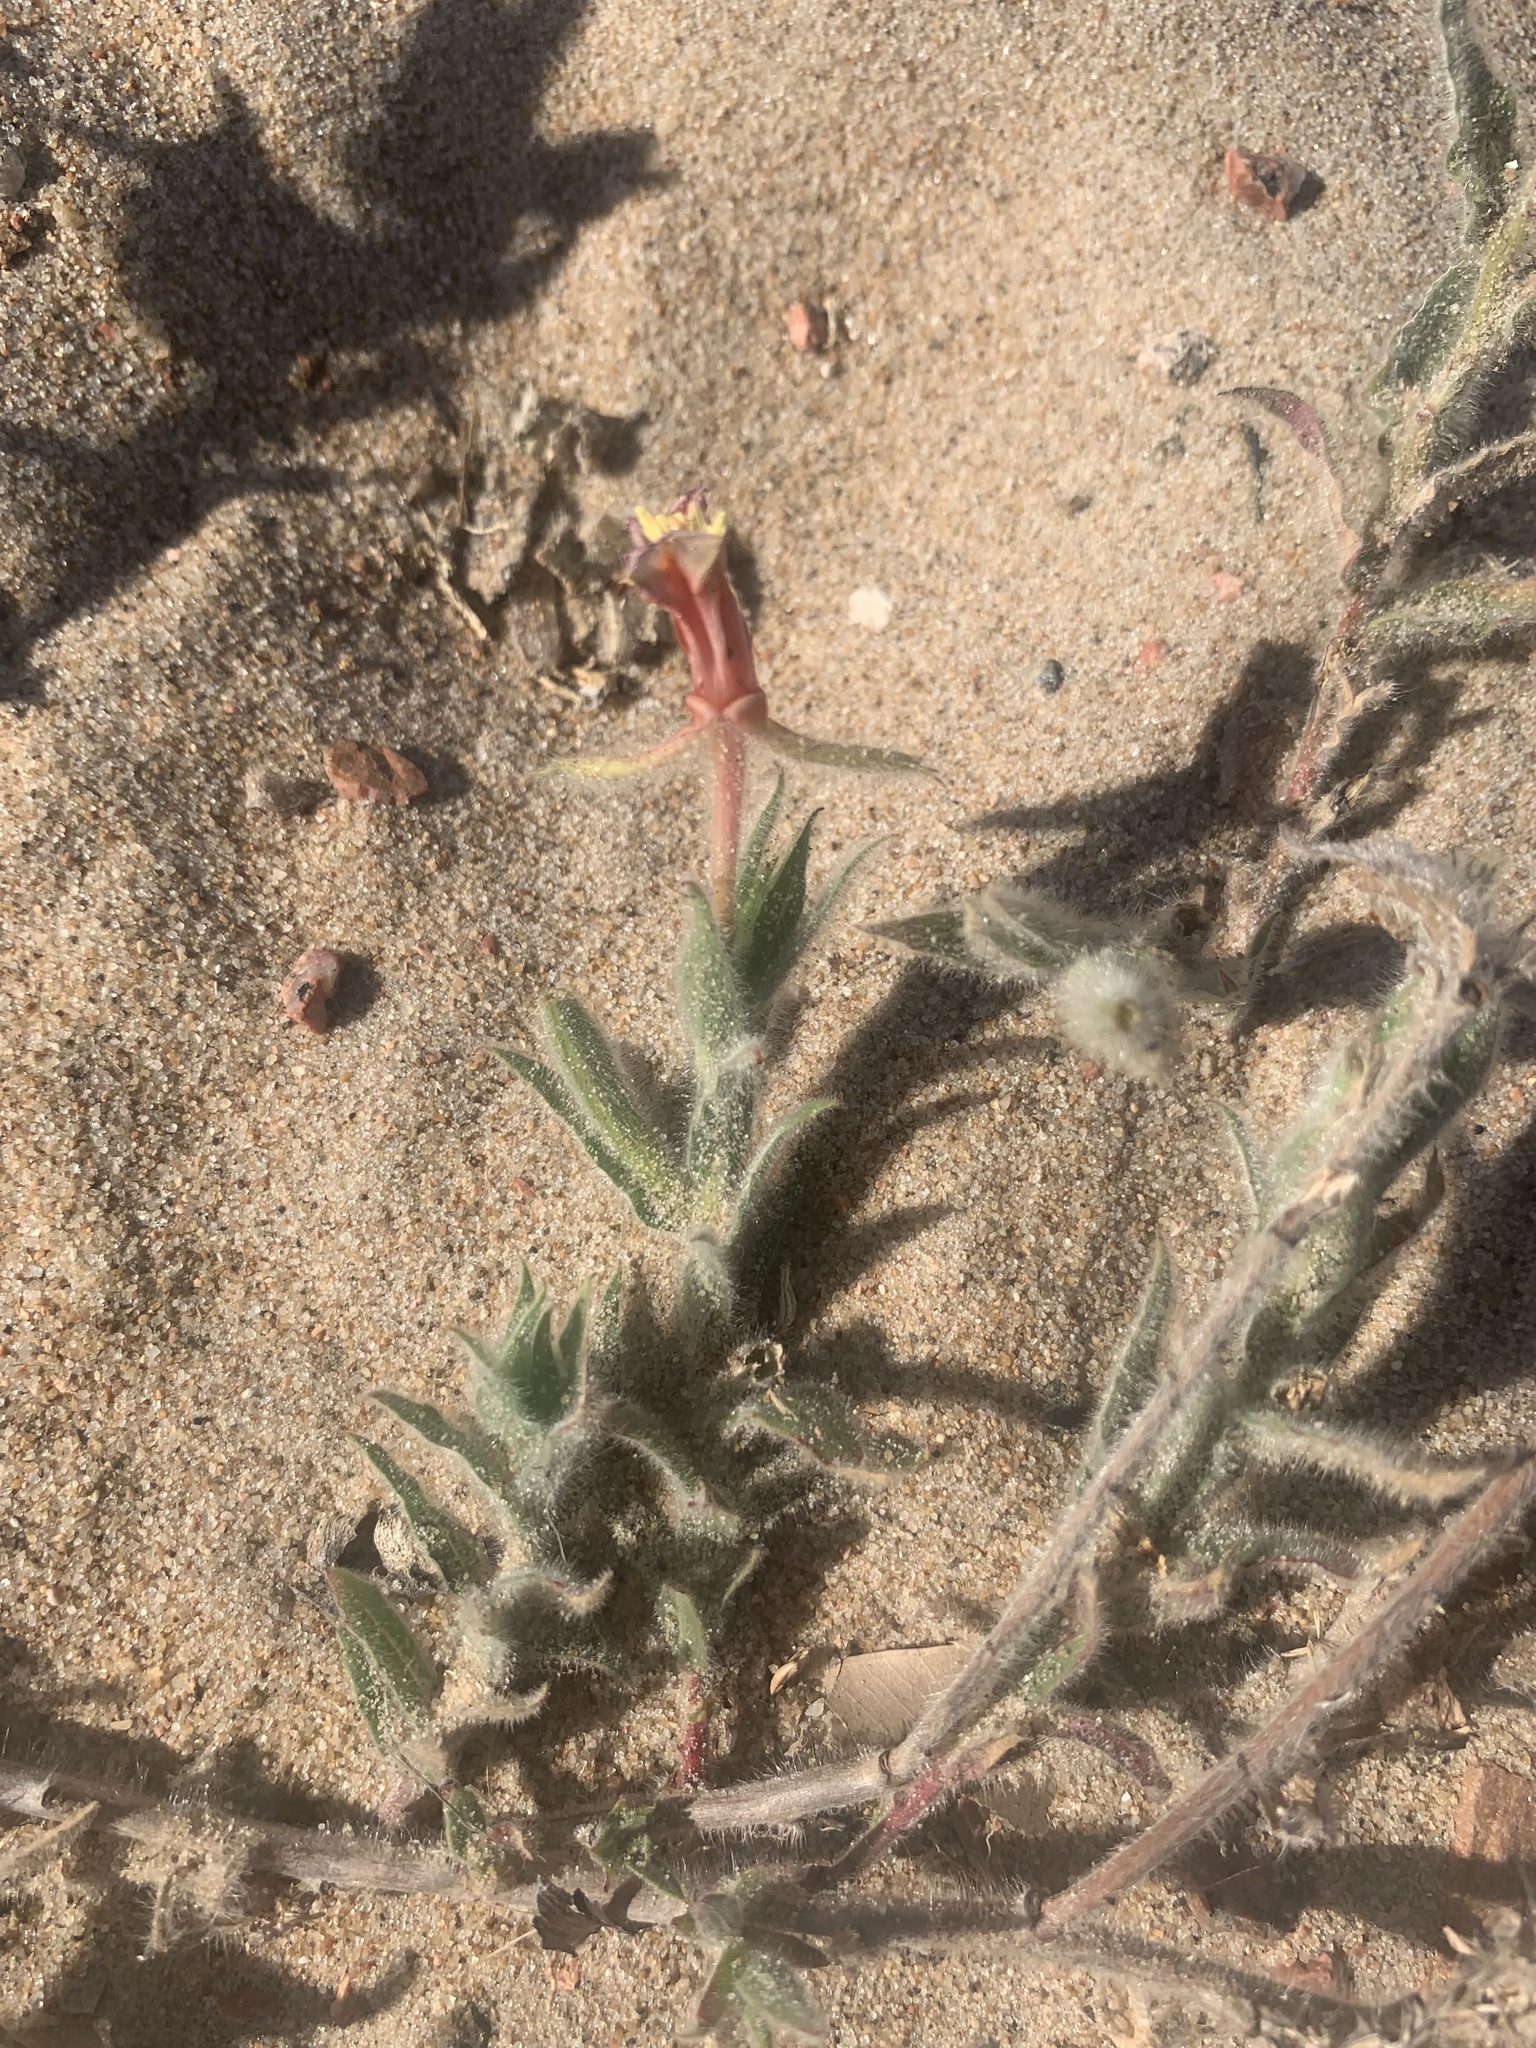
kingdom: Plantae
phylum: Tracheophyta
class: Magnoliopsida
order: Myrtales
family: Onagraceae
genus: Oenothera
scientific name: Oenothera mollissima
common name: Argentine evening primrose
